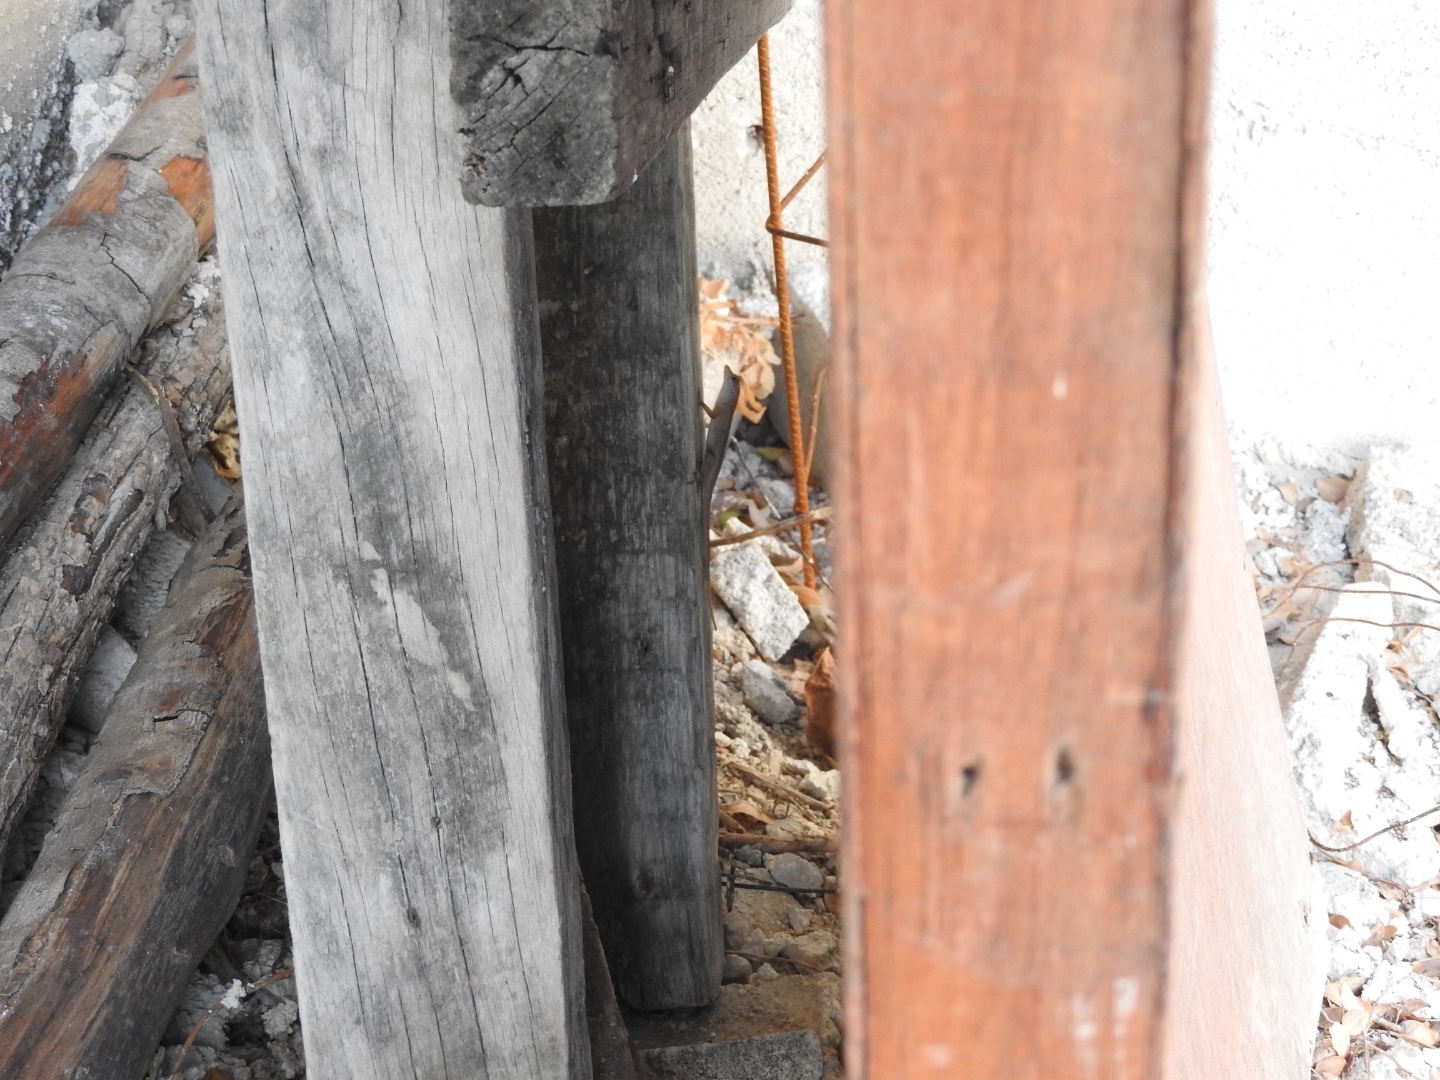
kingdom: Animalia
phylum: Chordata
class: Squamata
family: Dactyloidae
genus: Anolis
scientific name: Anolis sagrei
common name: Brown anole
